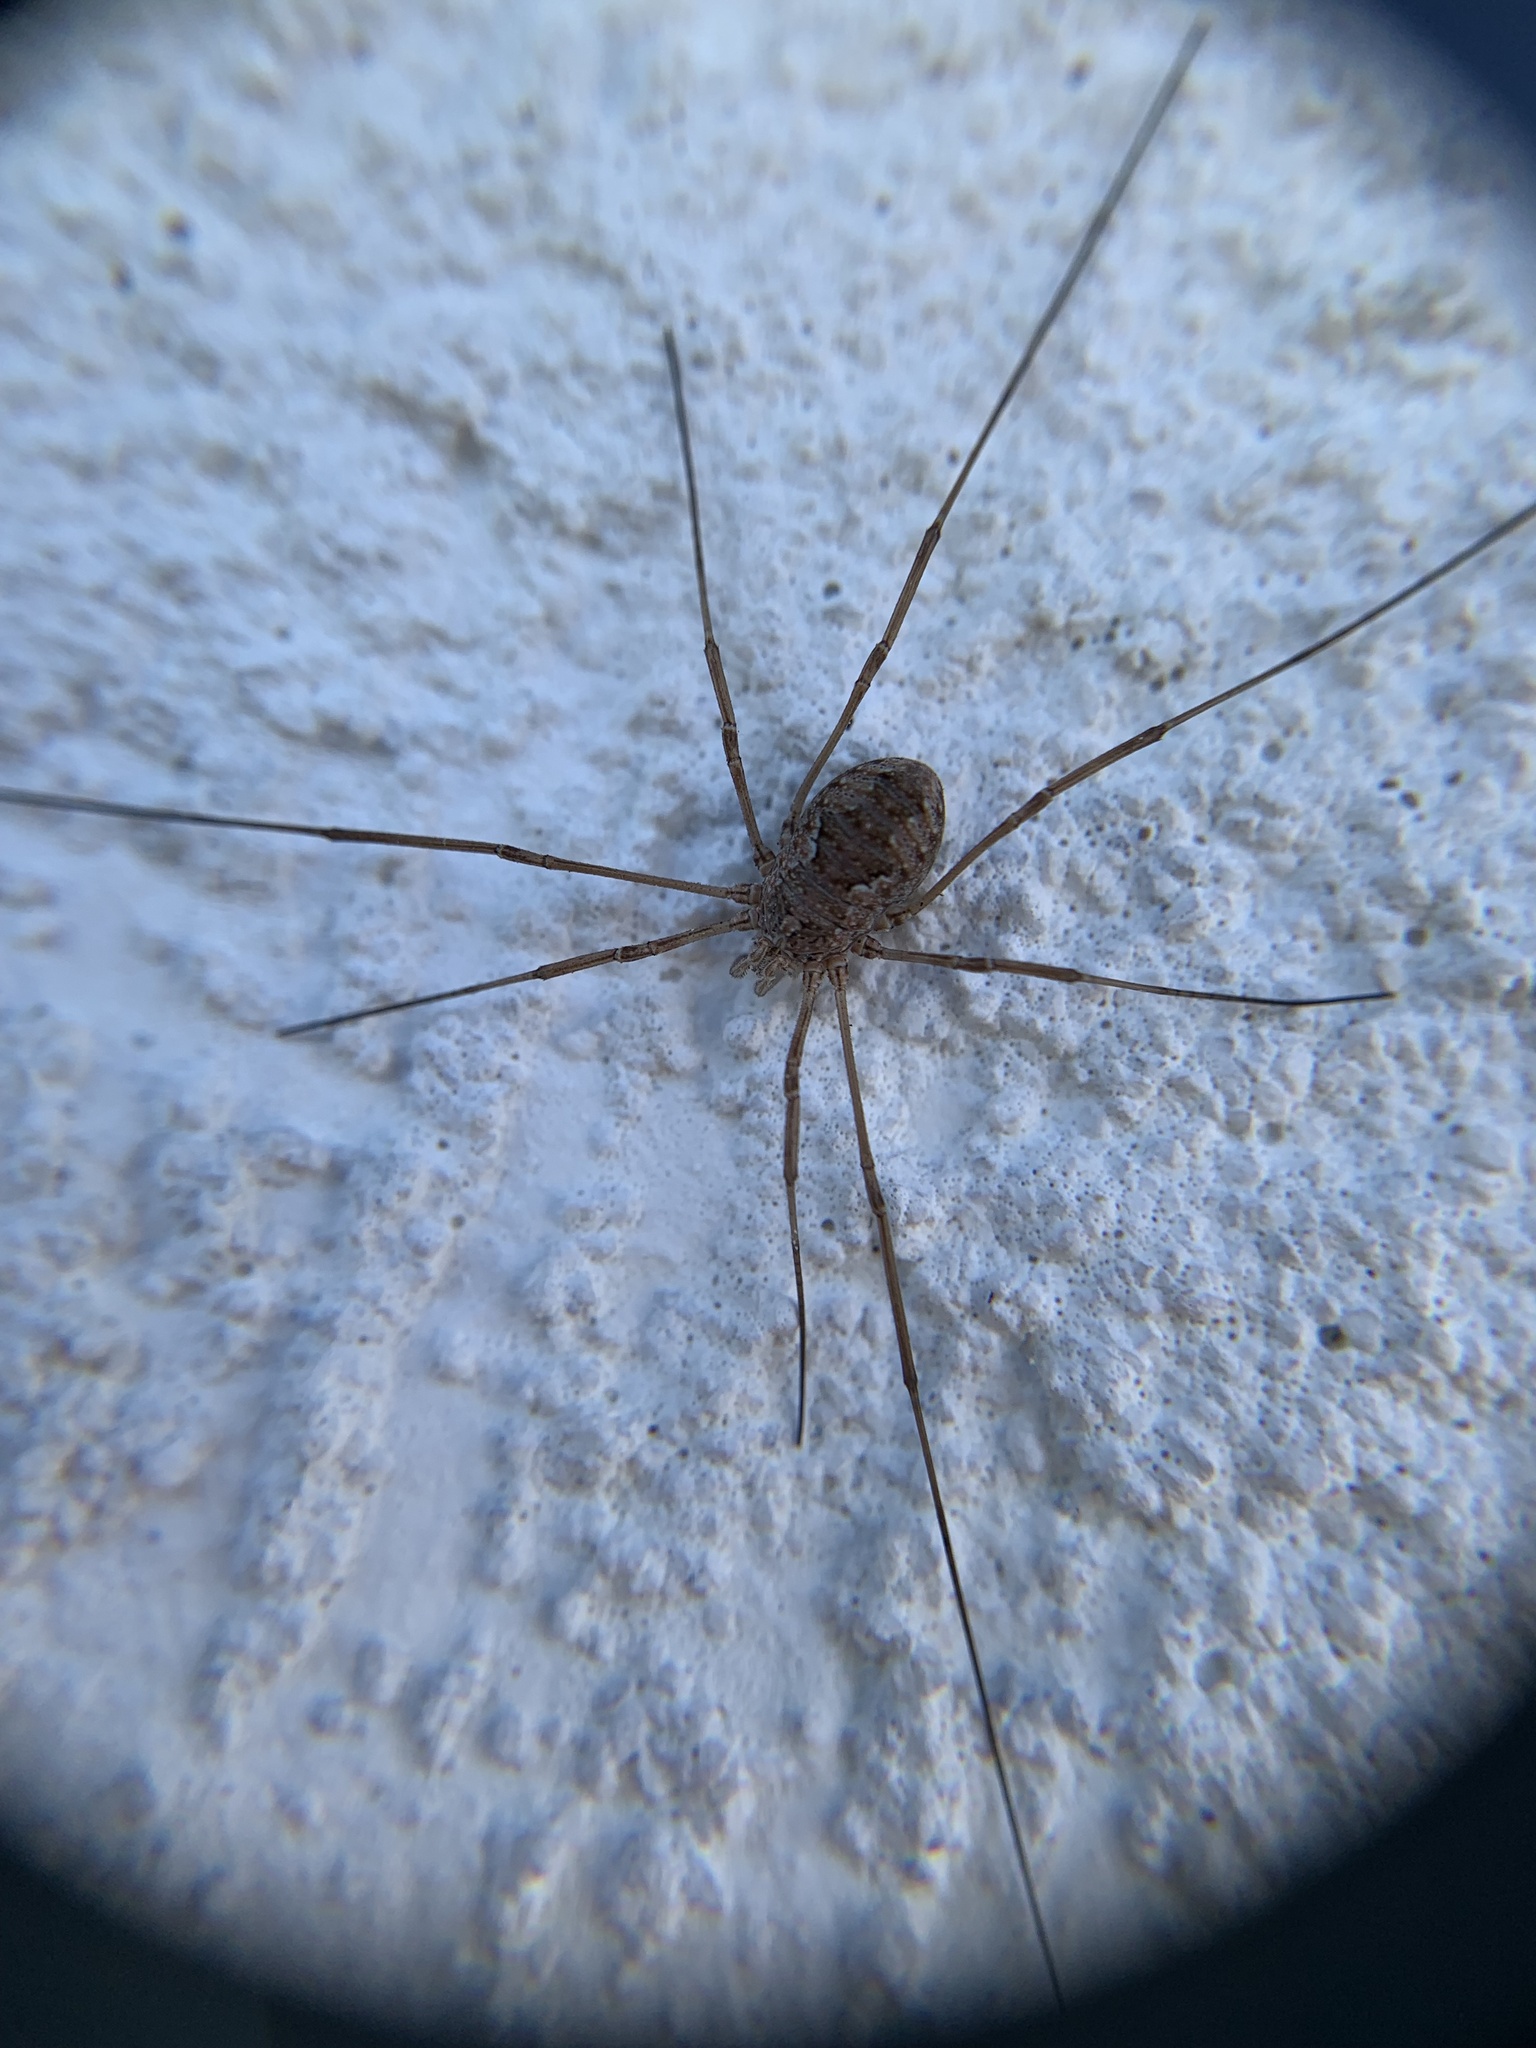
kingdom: Animalia
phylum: Arthropoda
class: Arachnida
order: Opiliones
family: Phalangiidae
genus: Phalangium
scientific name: Phalangium opilio
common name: Daddy longleg
